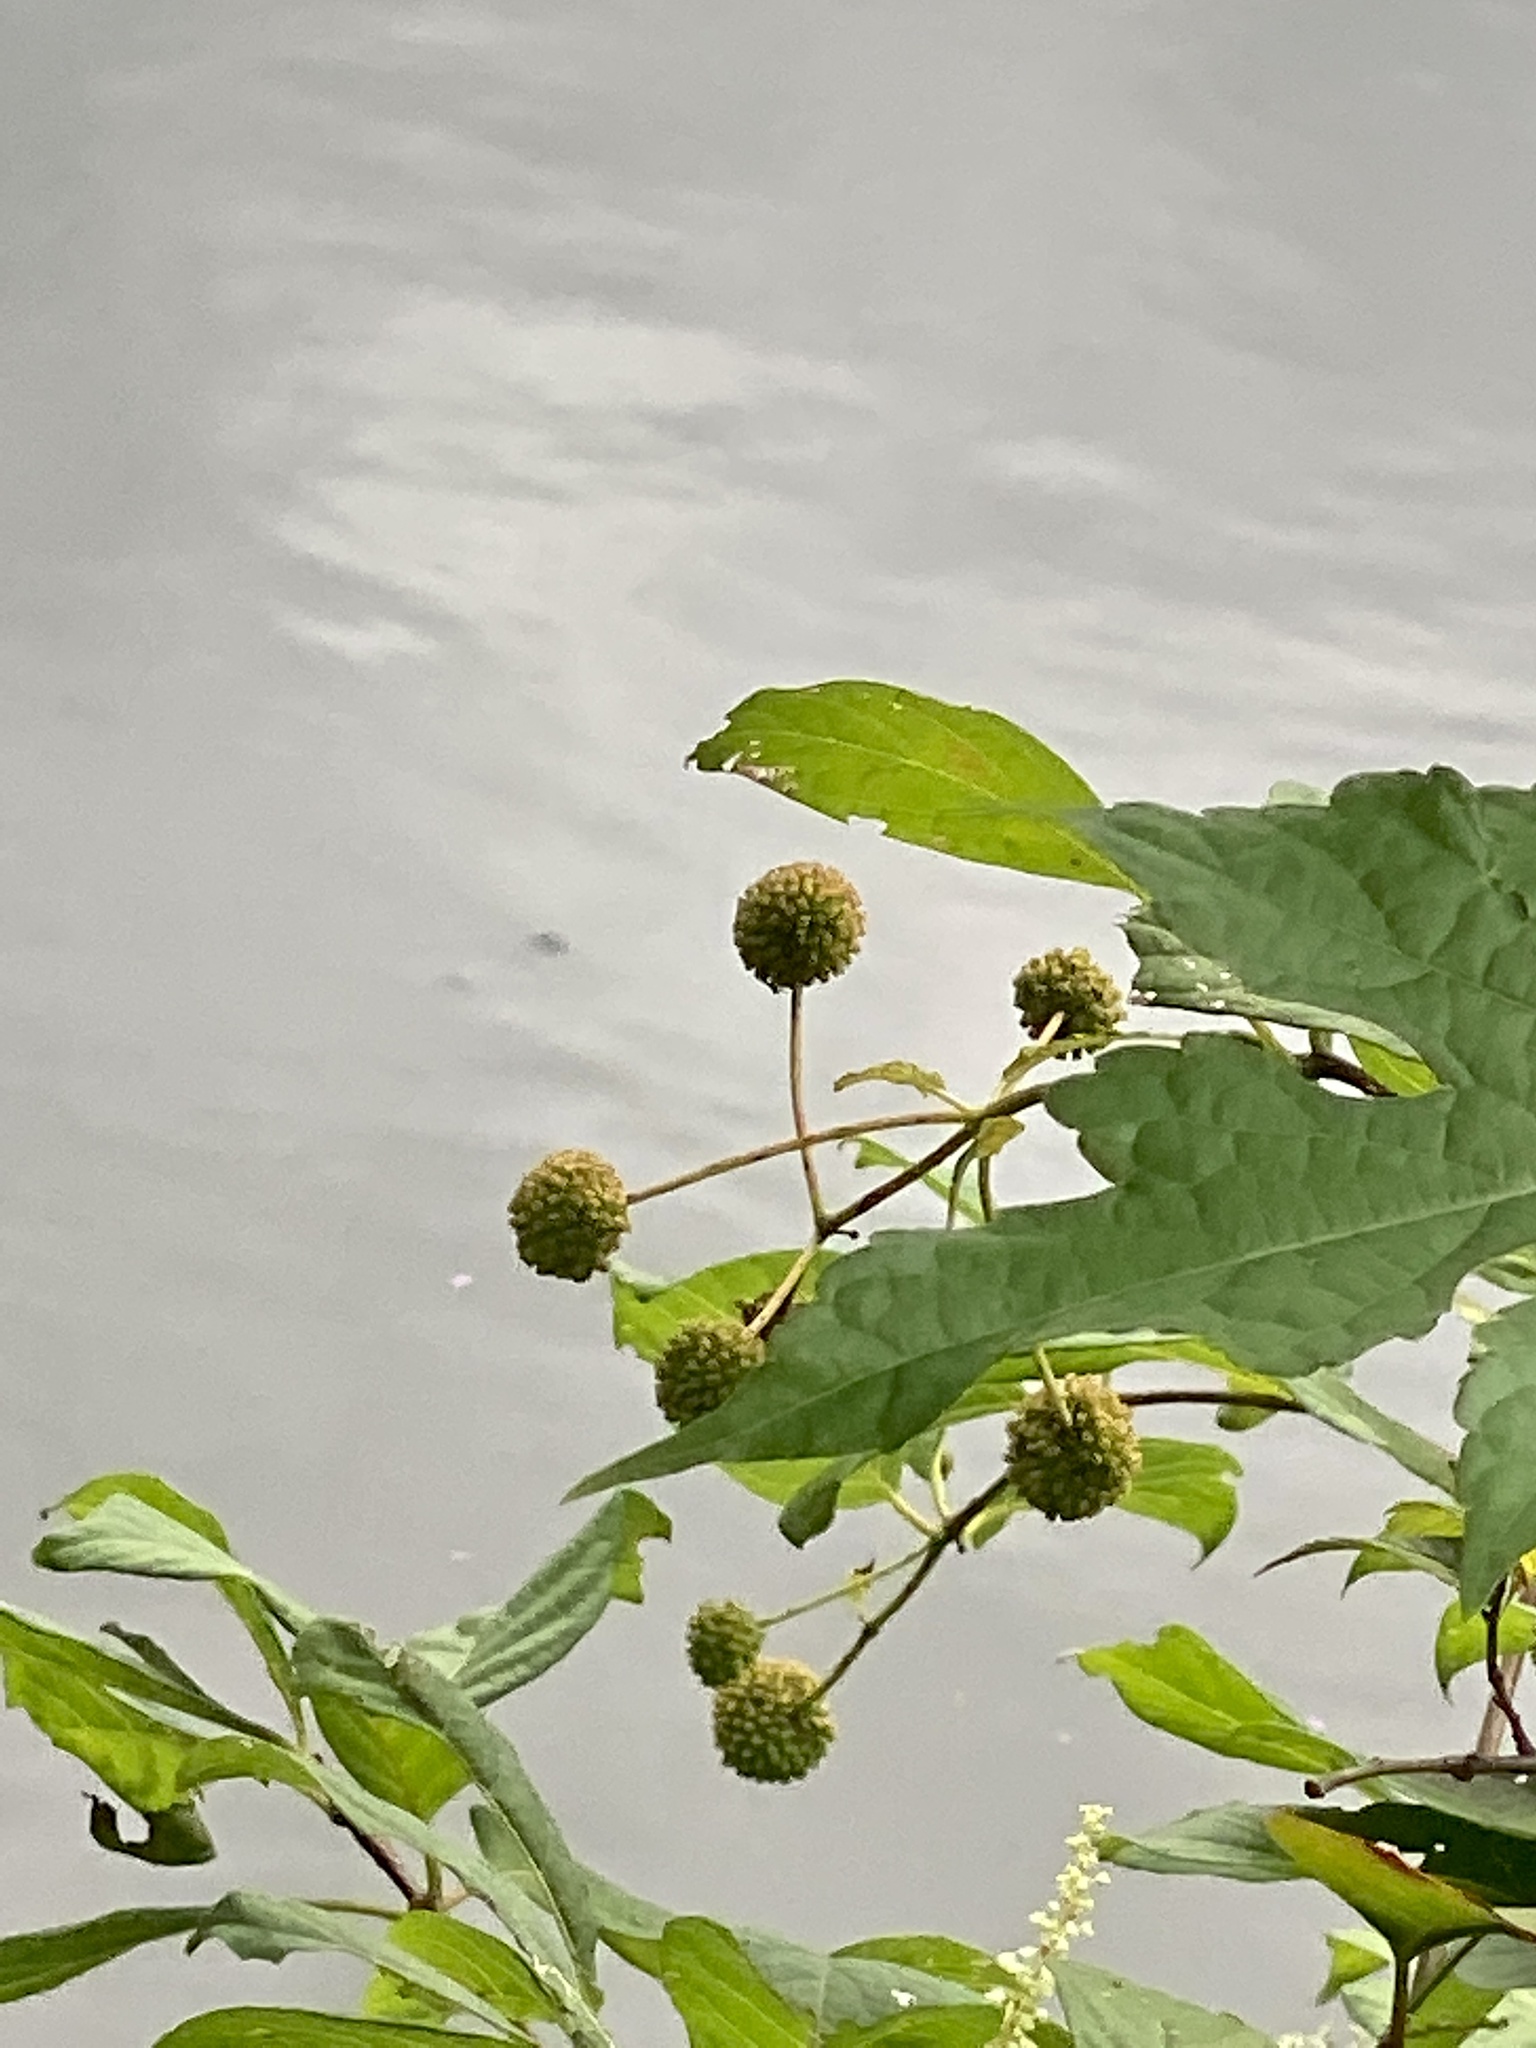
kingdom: Plantae
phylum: Tracheophyta
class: Magnoliopsida
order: Gentianales
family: Rubiaceae
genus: Cephalanthus
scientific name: Cephalanthus occidentalis
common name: Button-willow
